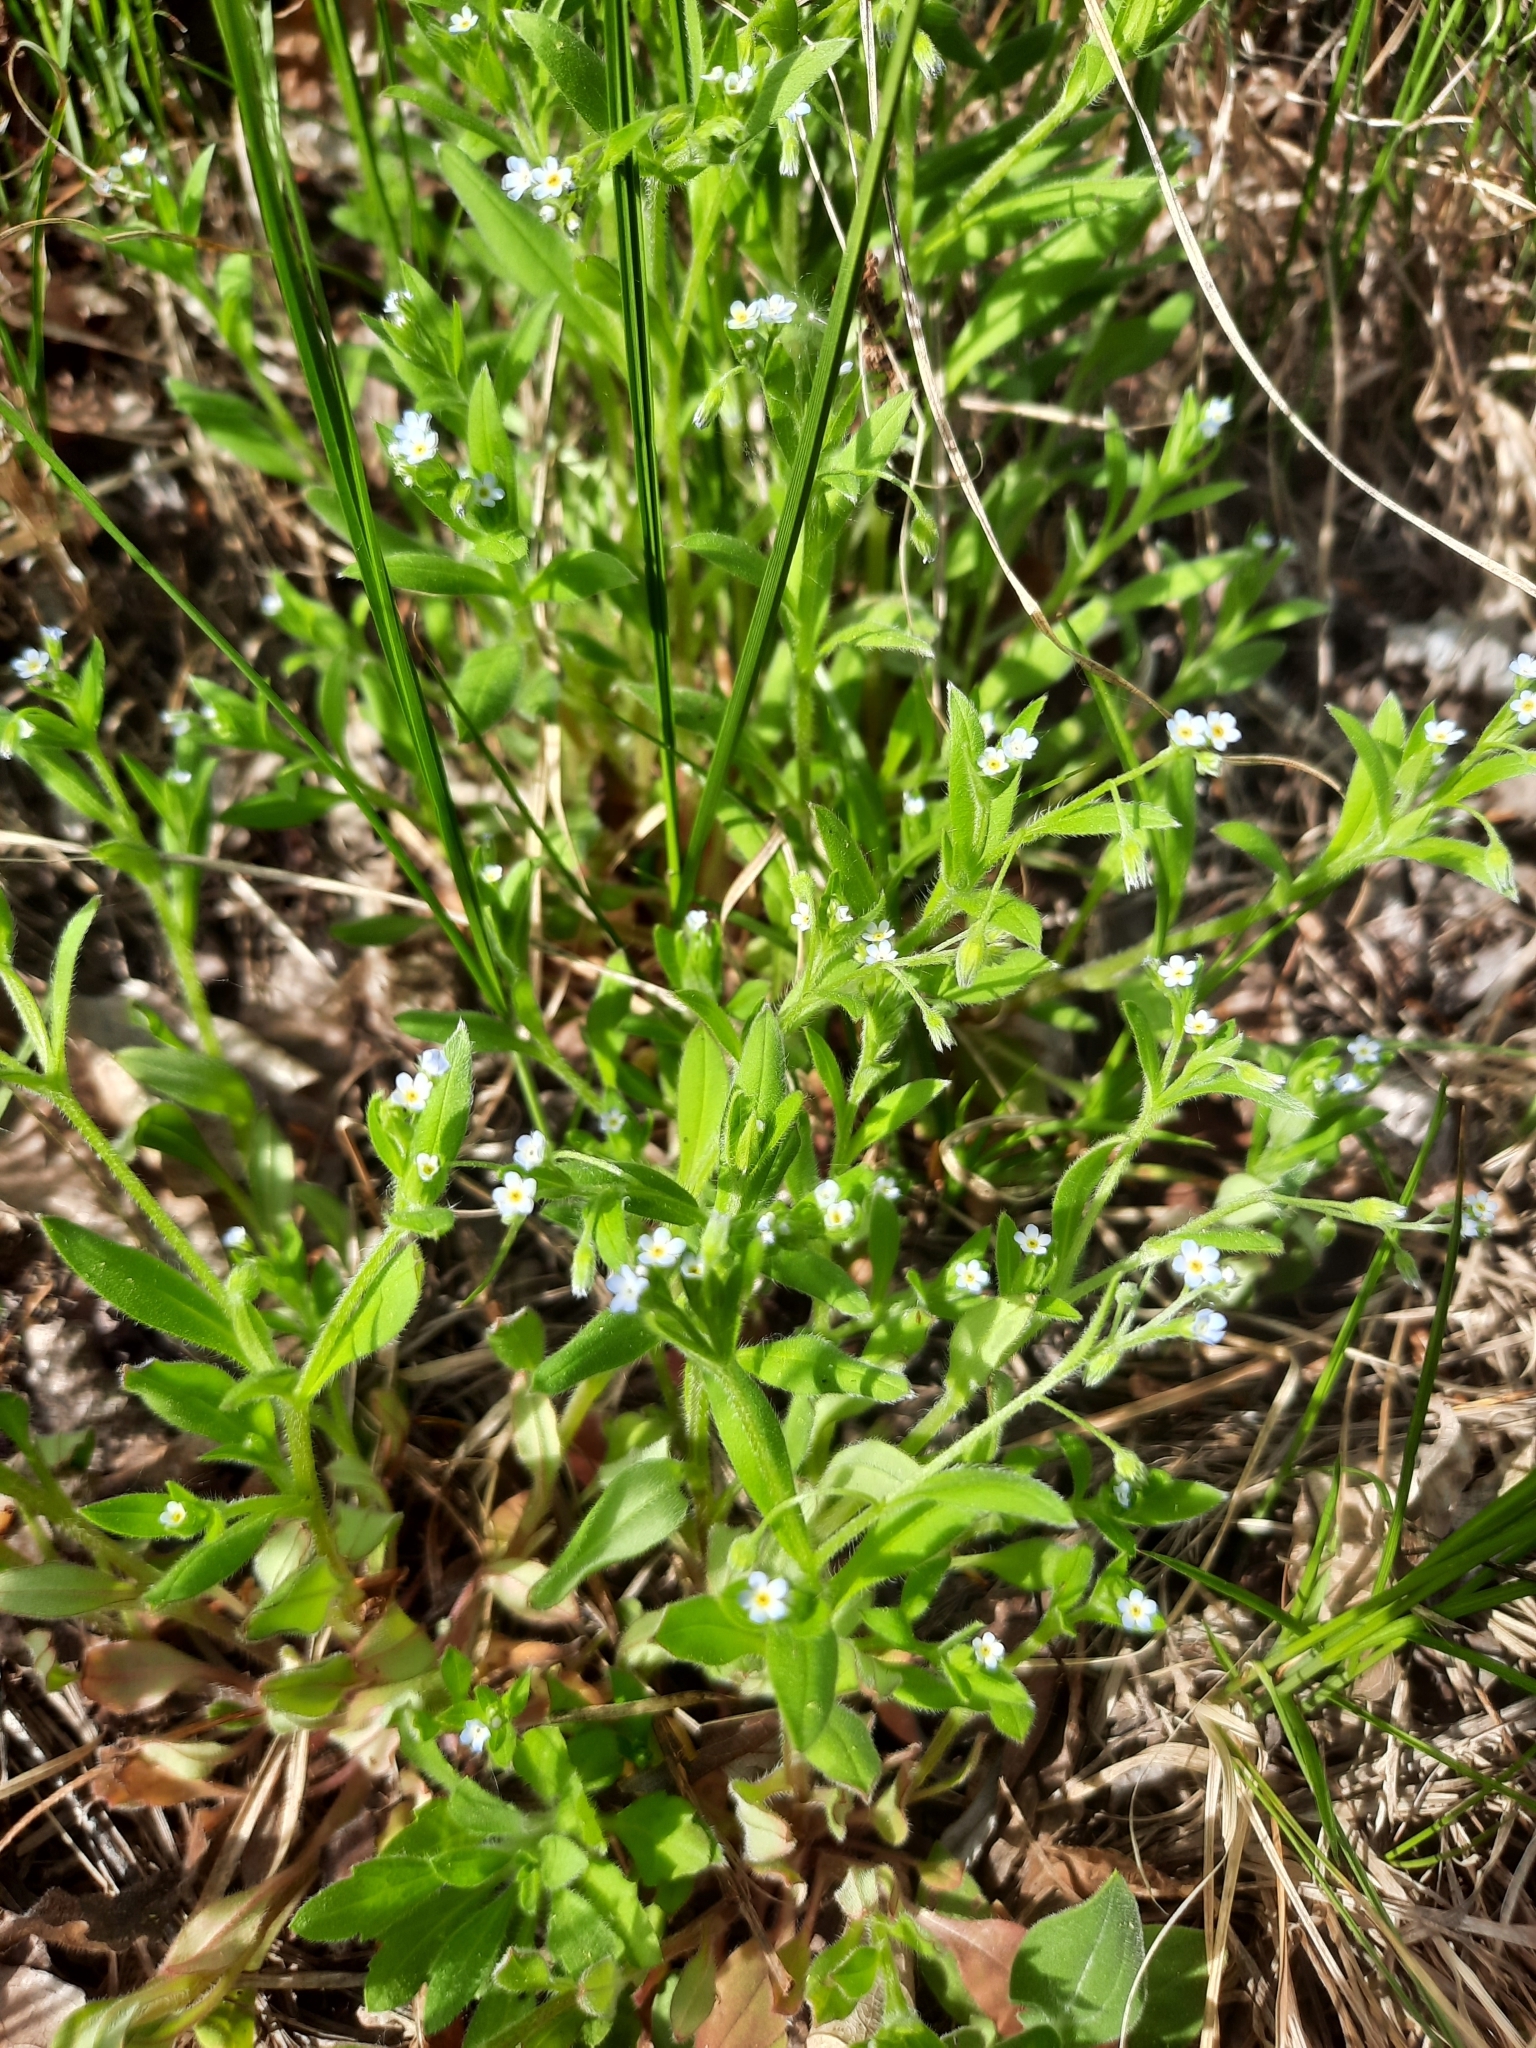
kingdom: Plantae
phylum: Tracheophyta
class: Magnoliopsida
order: Boraginales
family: Boraginaceae
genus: Myosotis
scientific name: Myosotis sparsiflora
